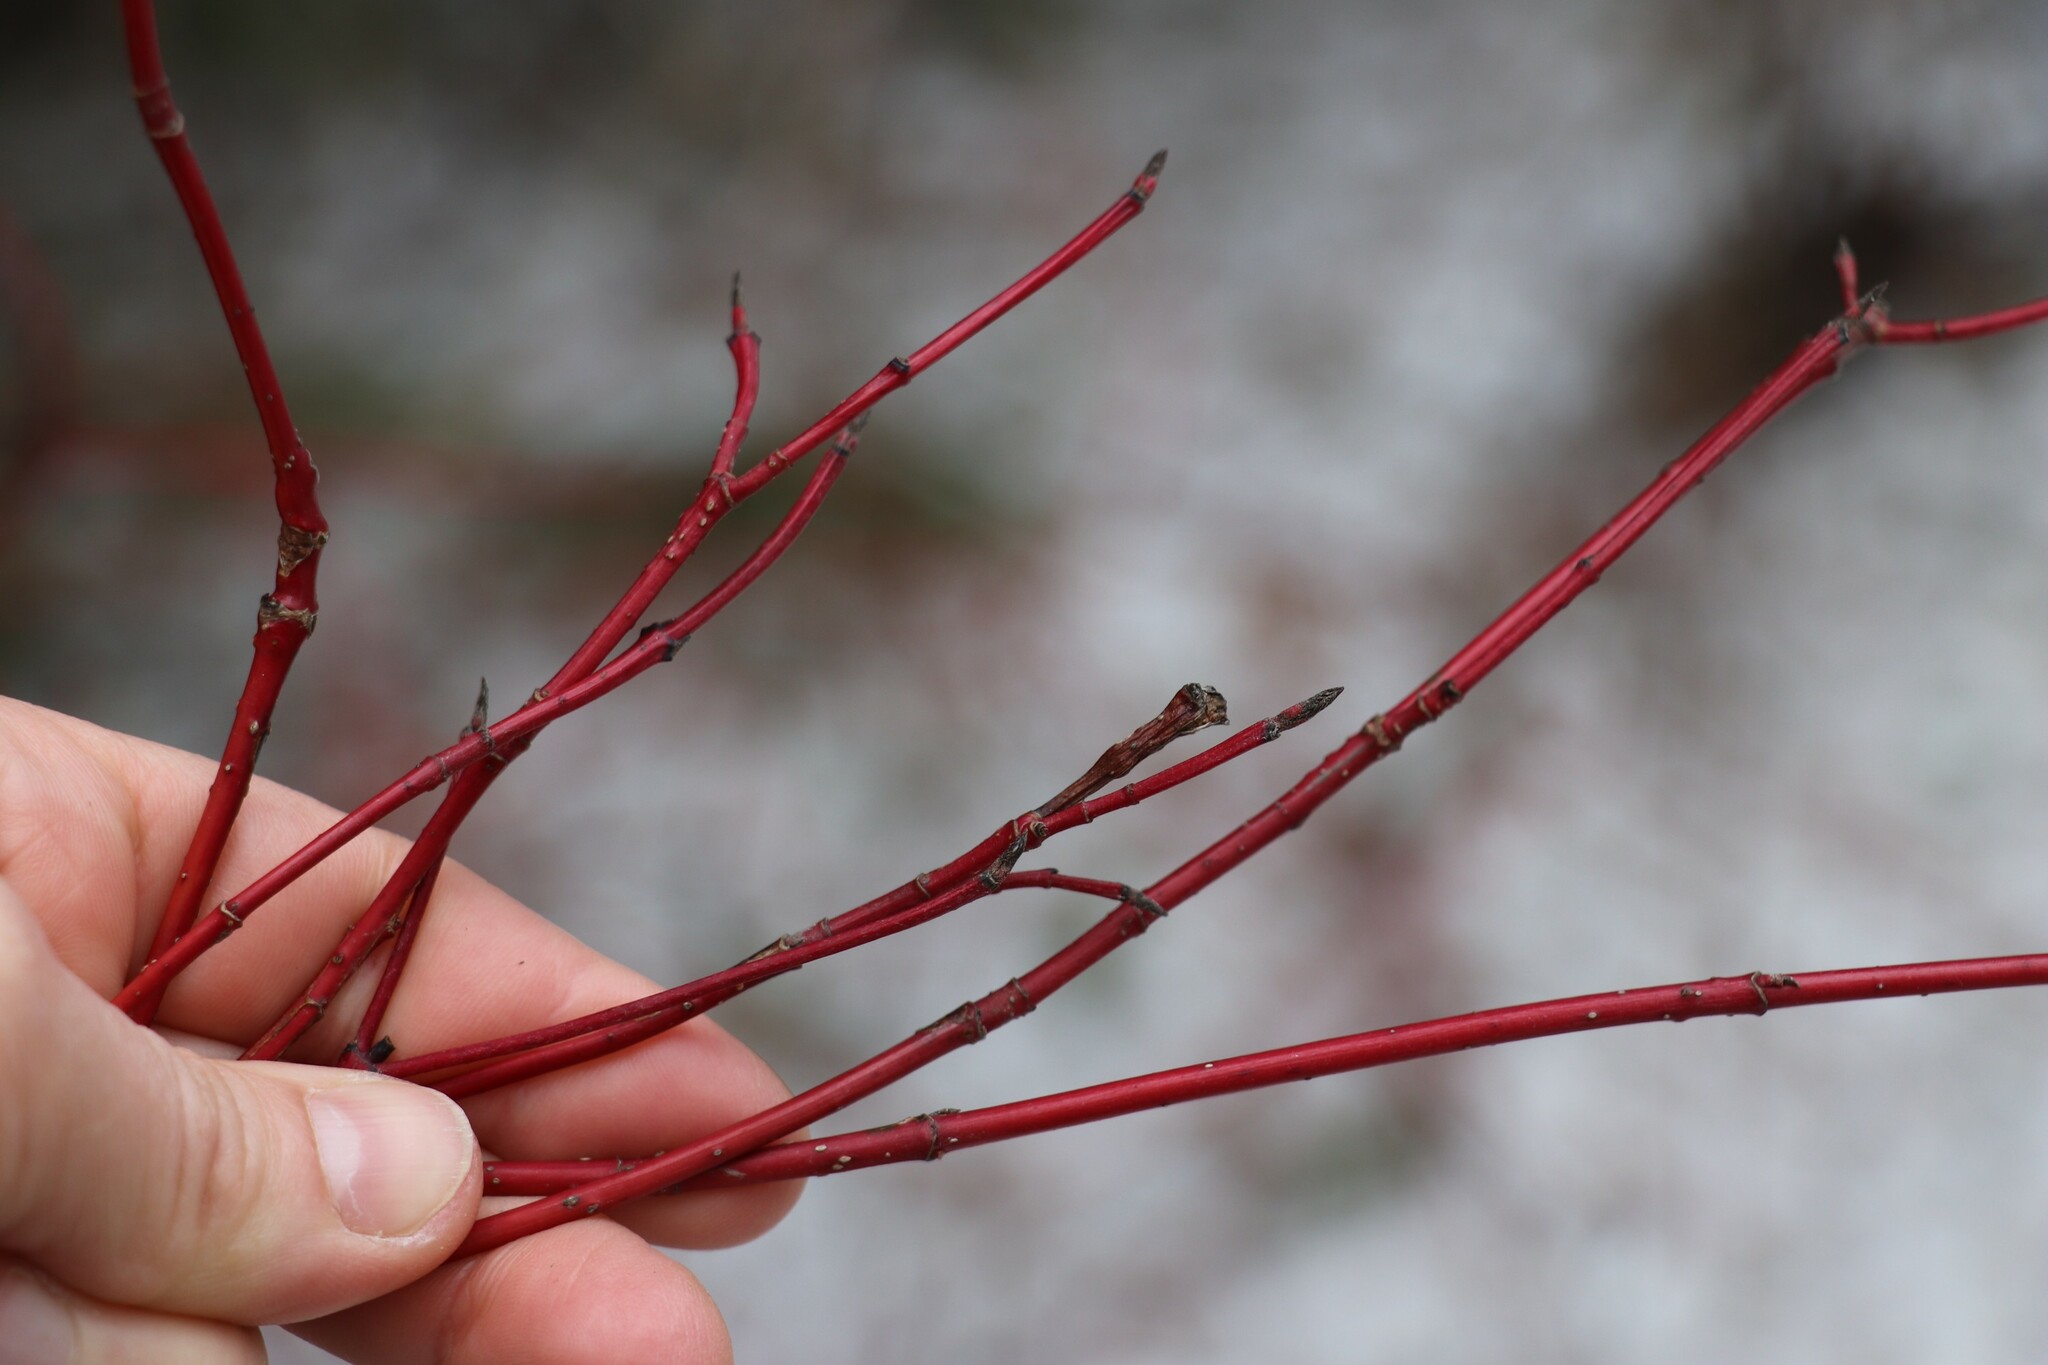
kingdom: Plantae
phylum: Tracheophyta
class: Magnoliopsida
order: Cornales
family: Cornaceae
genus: Cornus
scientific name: Cornus alba
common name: White dogwood
